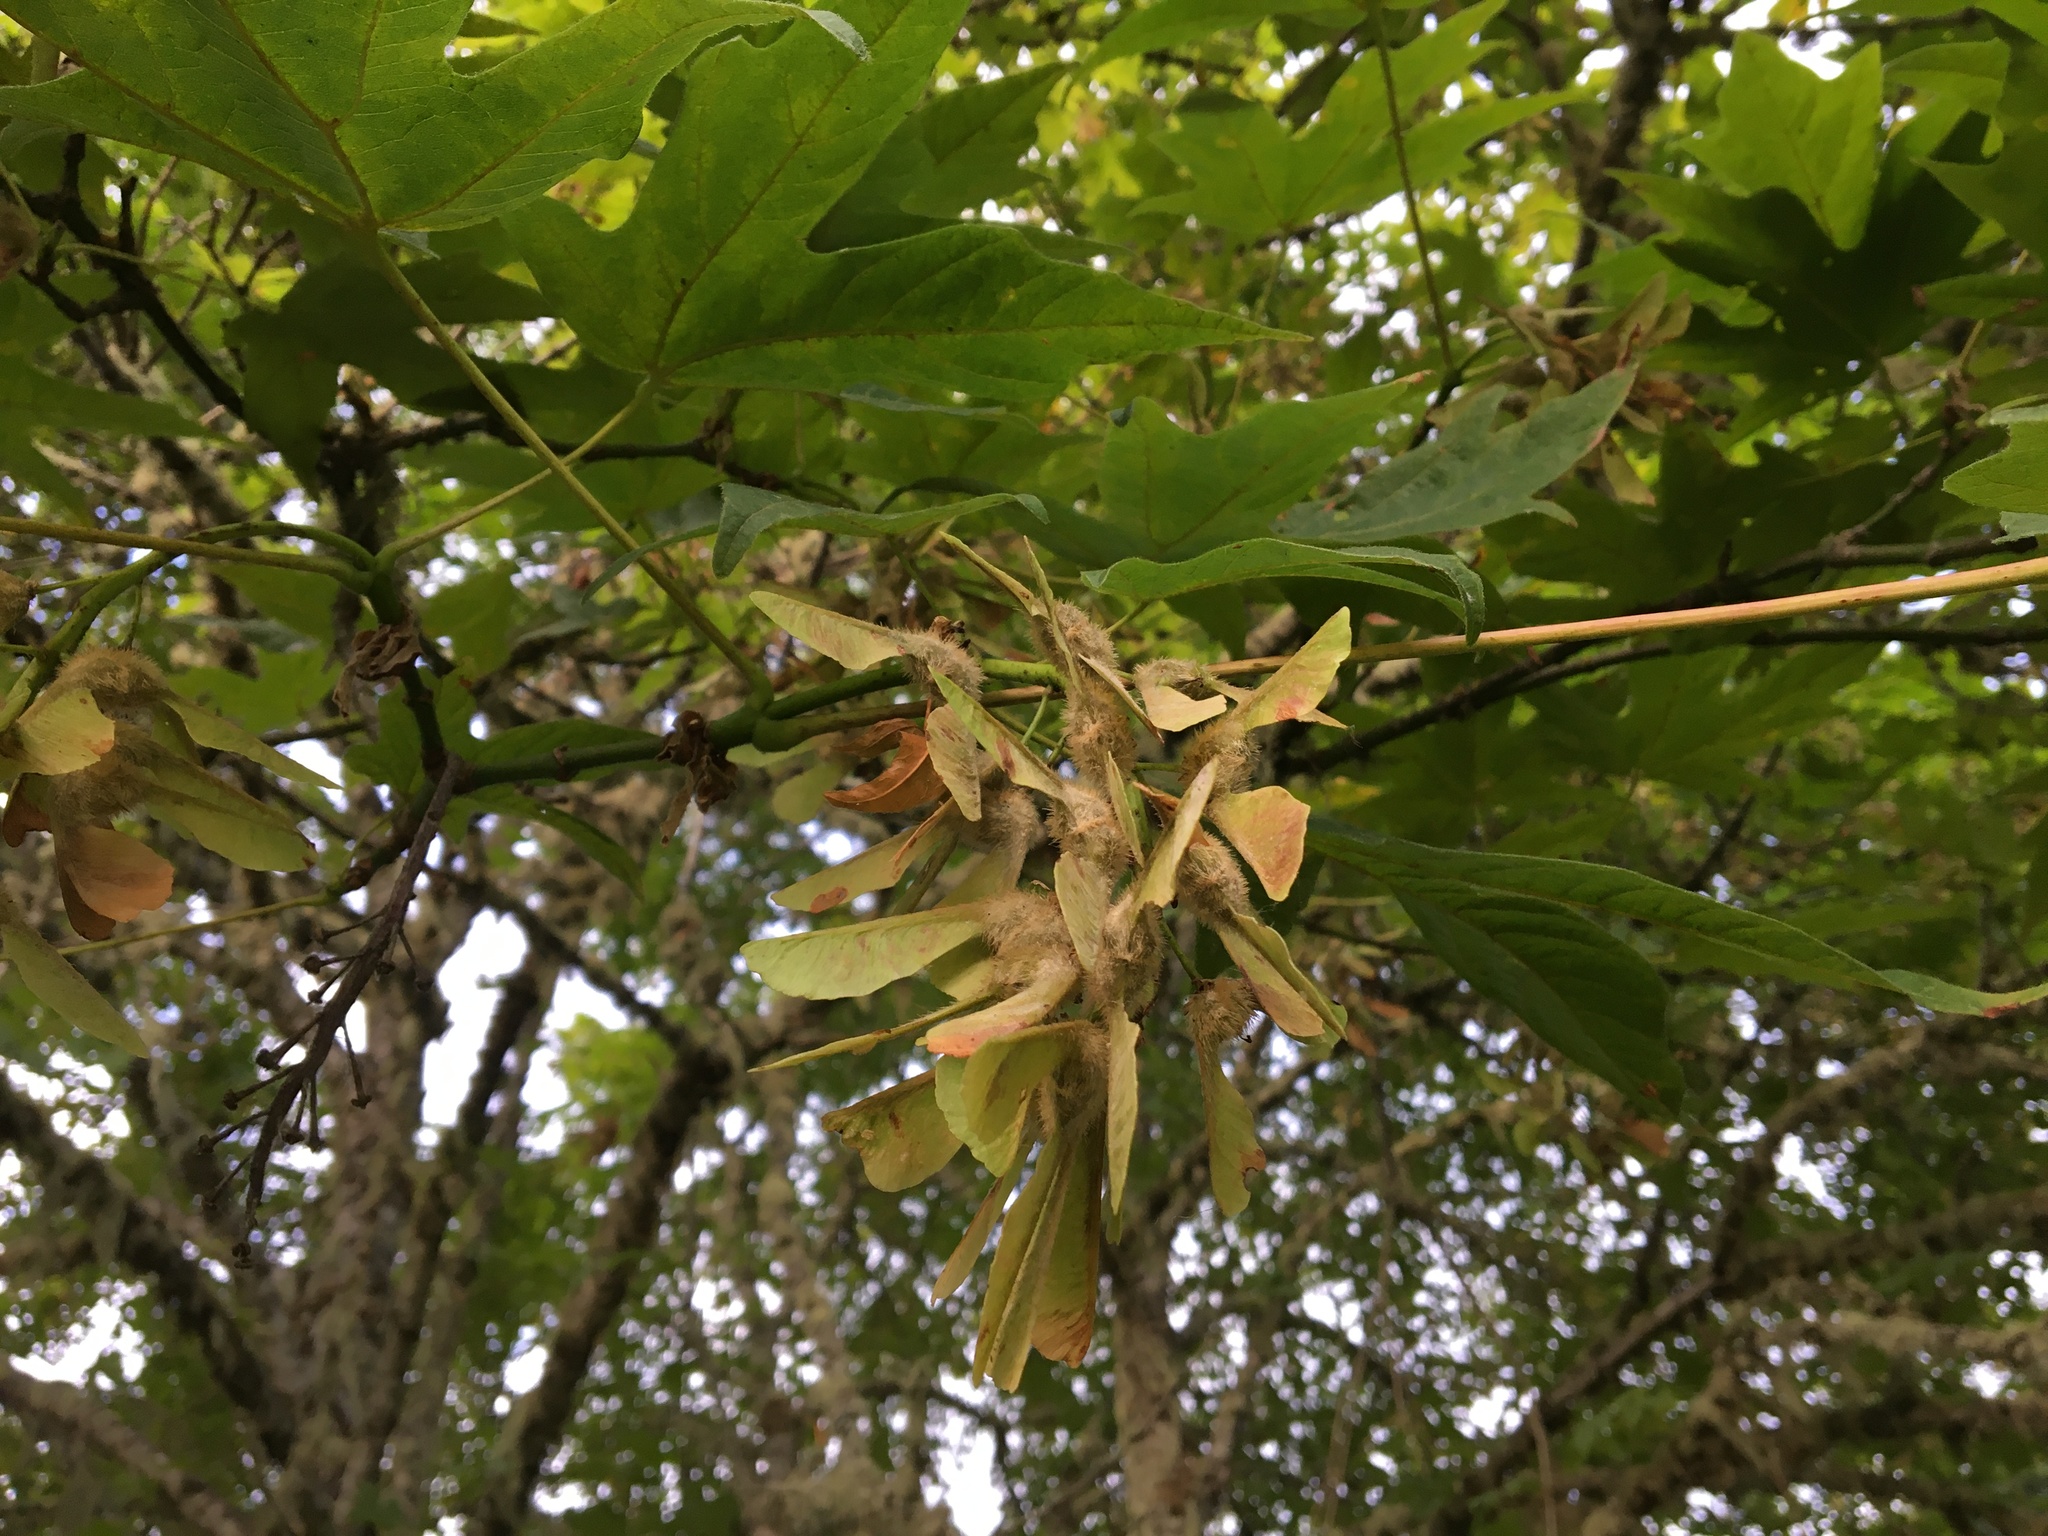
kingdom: Plantae
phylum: Tracheophyta
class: Magnoliopsida
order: Sapindales
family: Sapindaceae
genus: Acer
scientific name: Acer macrophyllum
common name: Oregon maple
